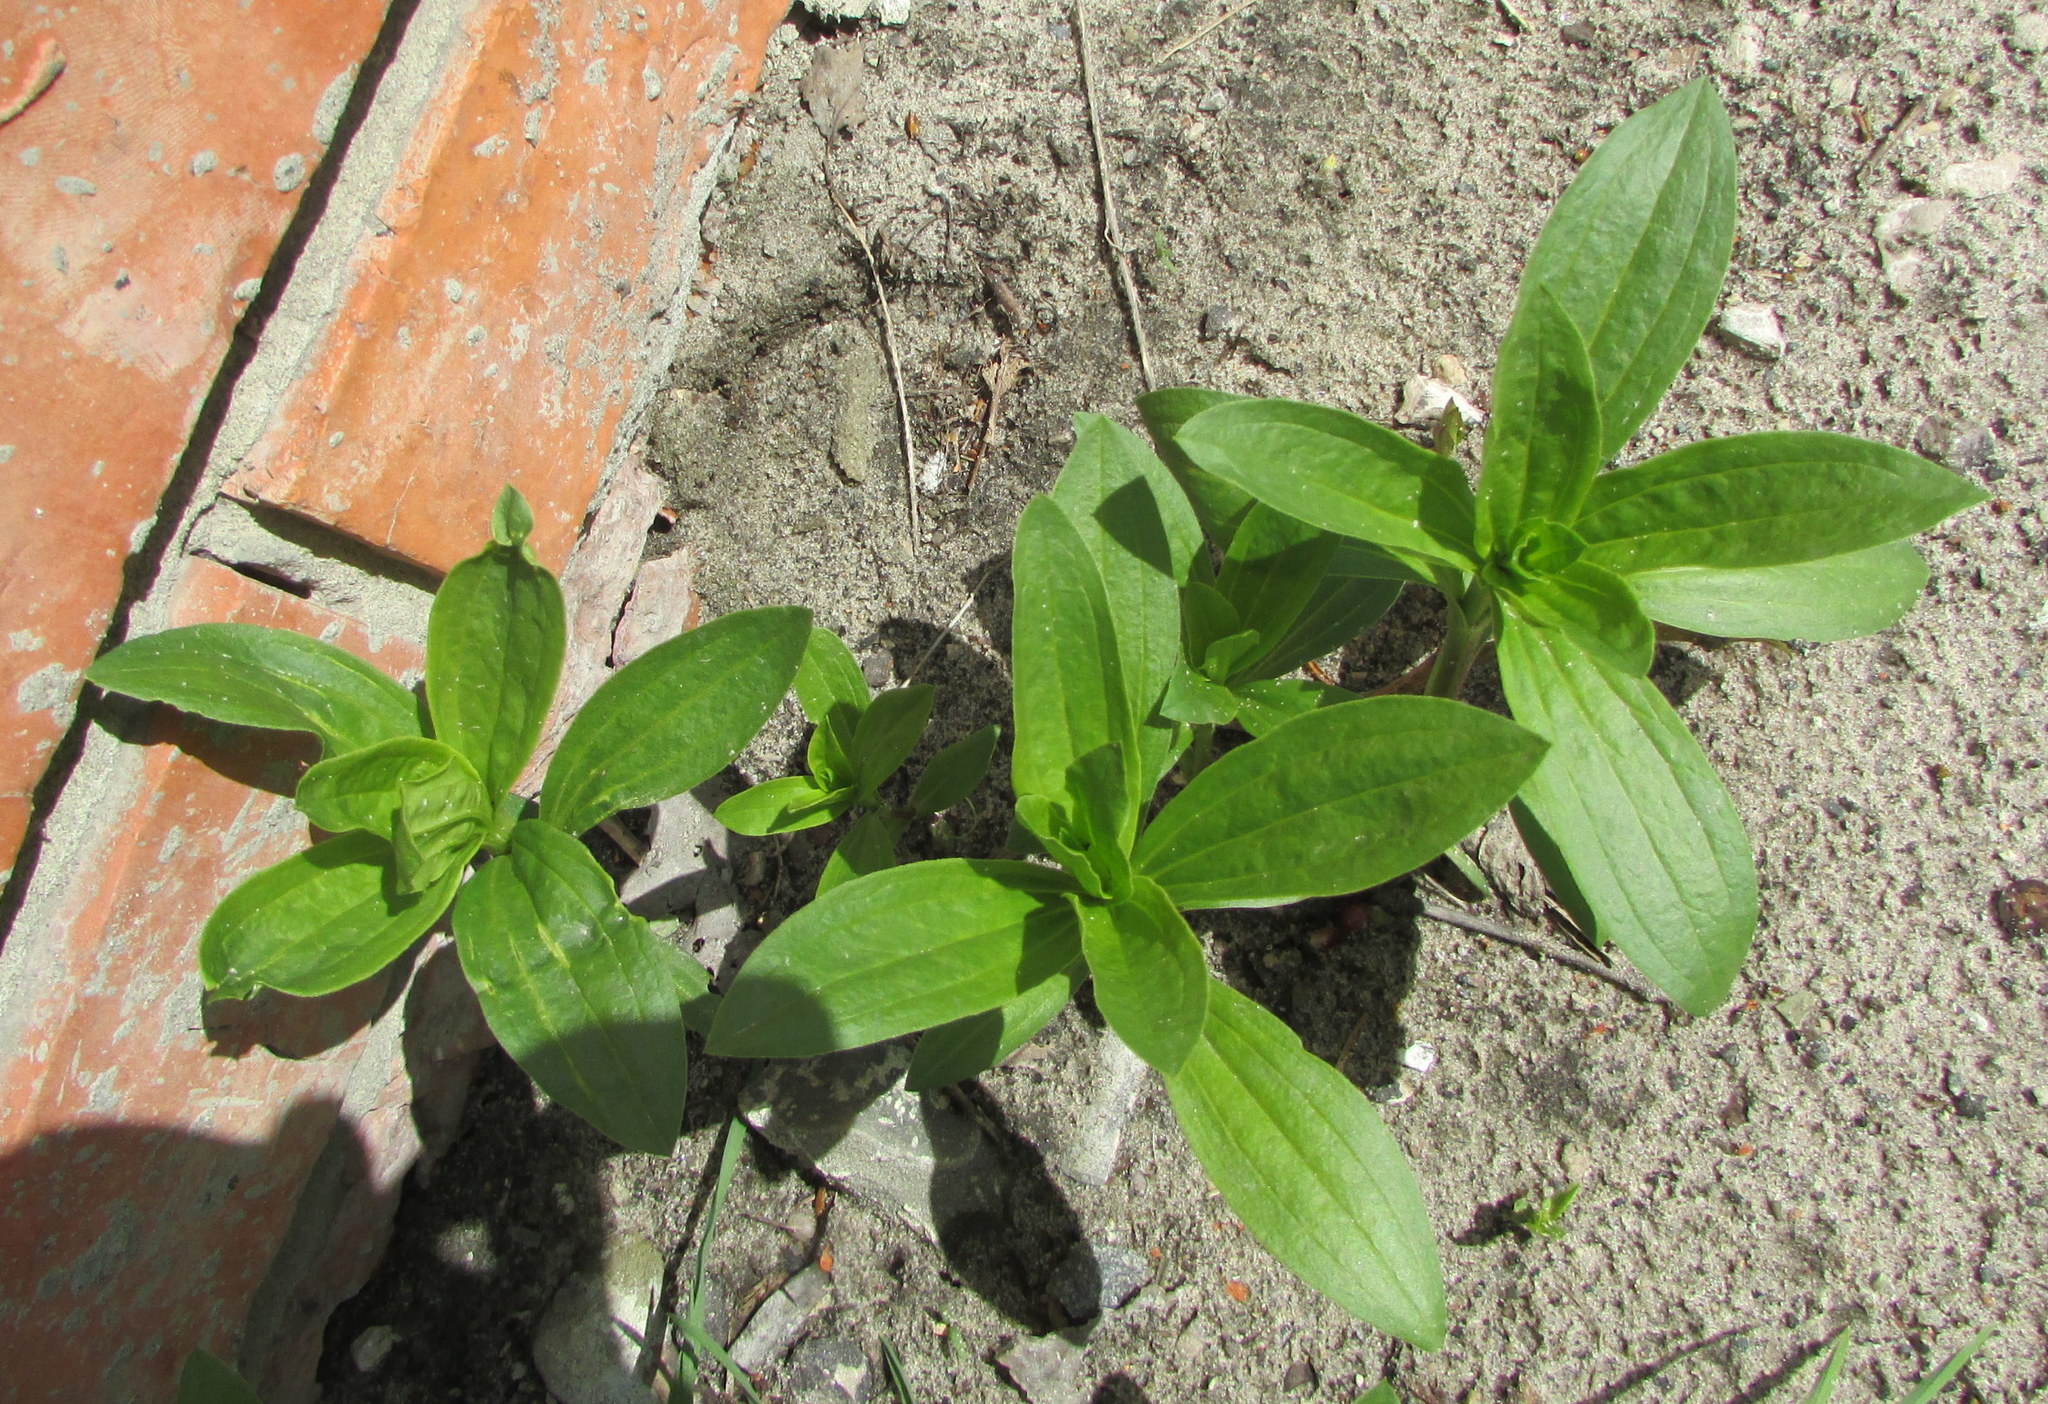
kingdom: Plantae
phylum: Tracheophyta
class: Magnoliopsida
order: Caryophyllales
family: Caryophyllaceae
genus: Saponaria
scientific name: Saponaria officinalis
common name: Soapwort
